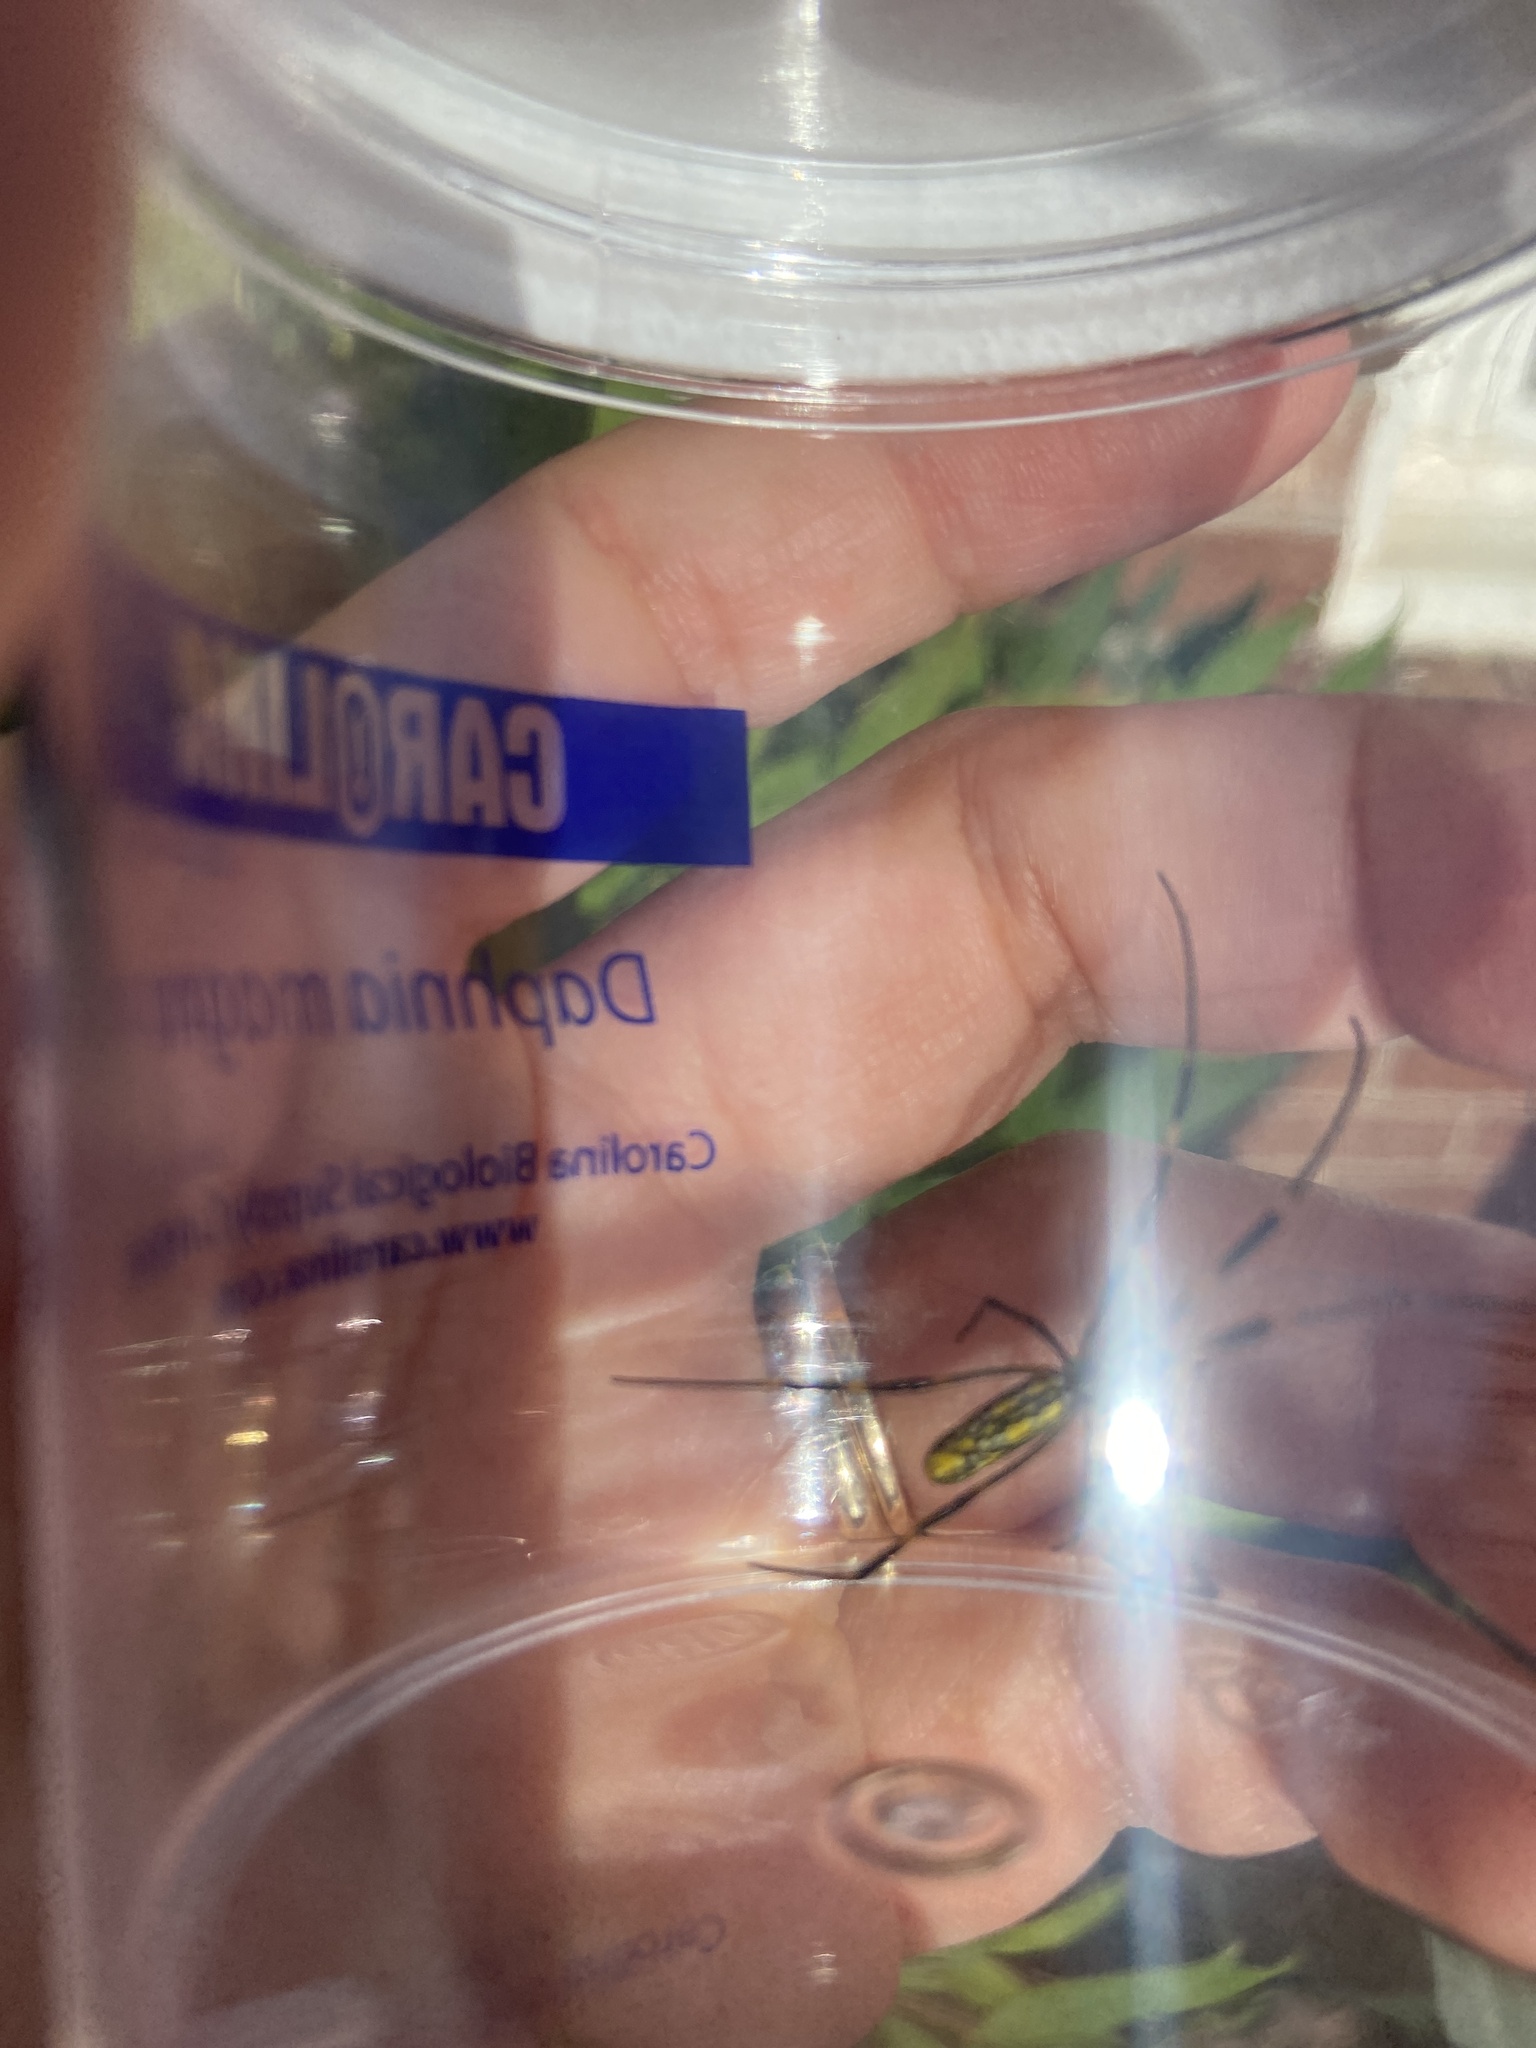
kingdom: Animalia
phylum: Arthropoda
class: Arachnida
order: Araneae
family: Araneidae
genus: Trichonephila
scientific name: Trichonephila clavata
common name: Jorō spider
